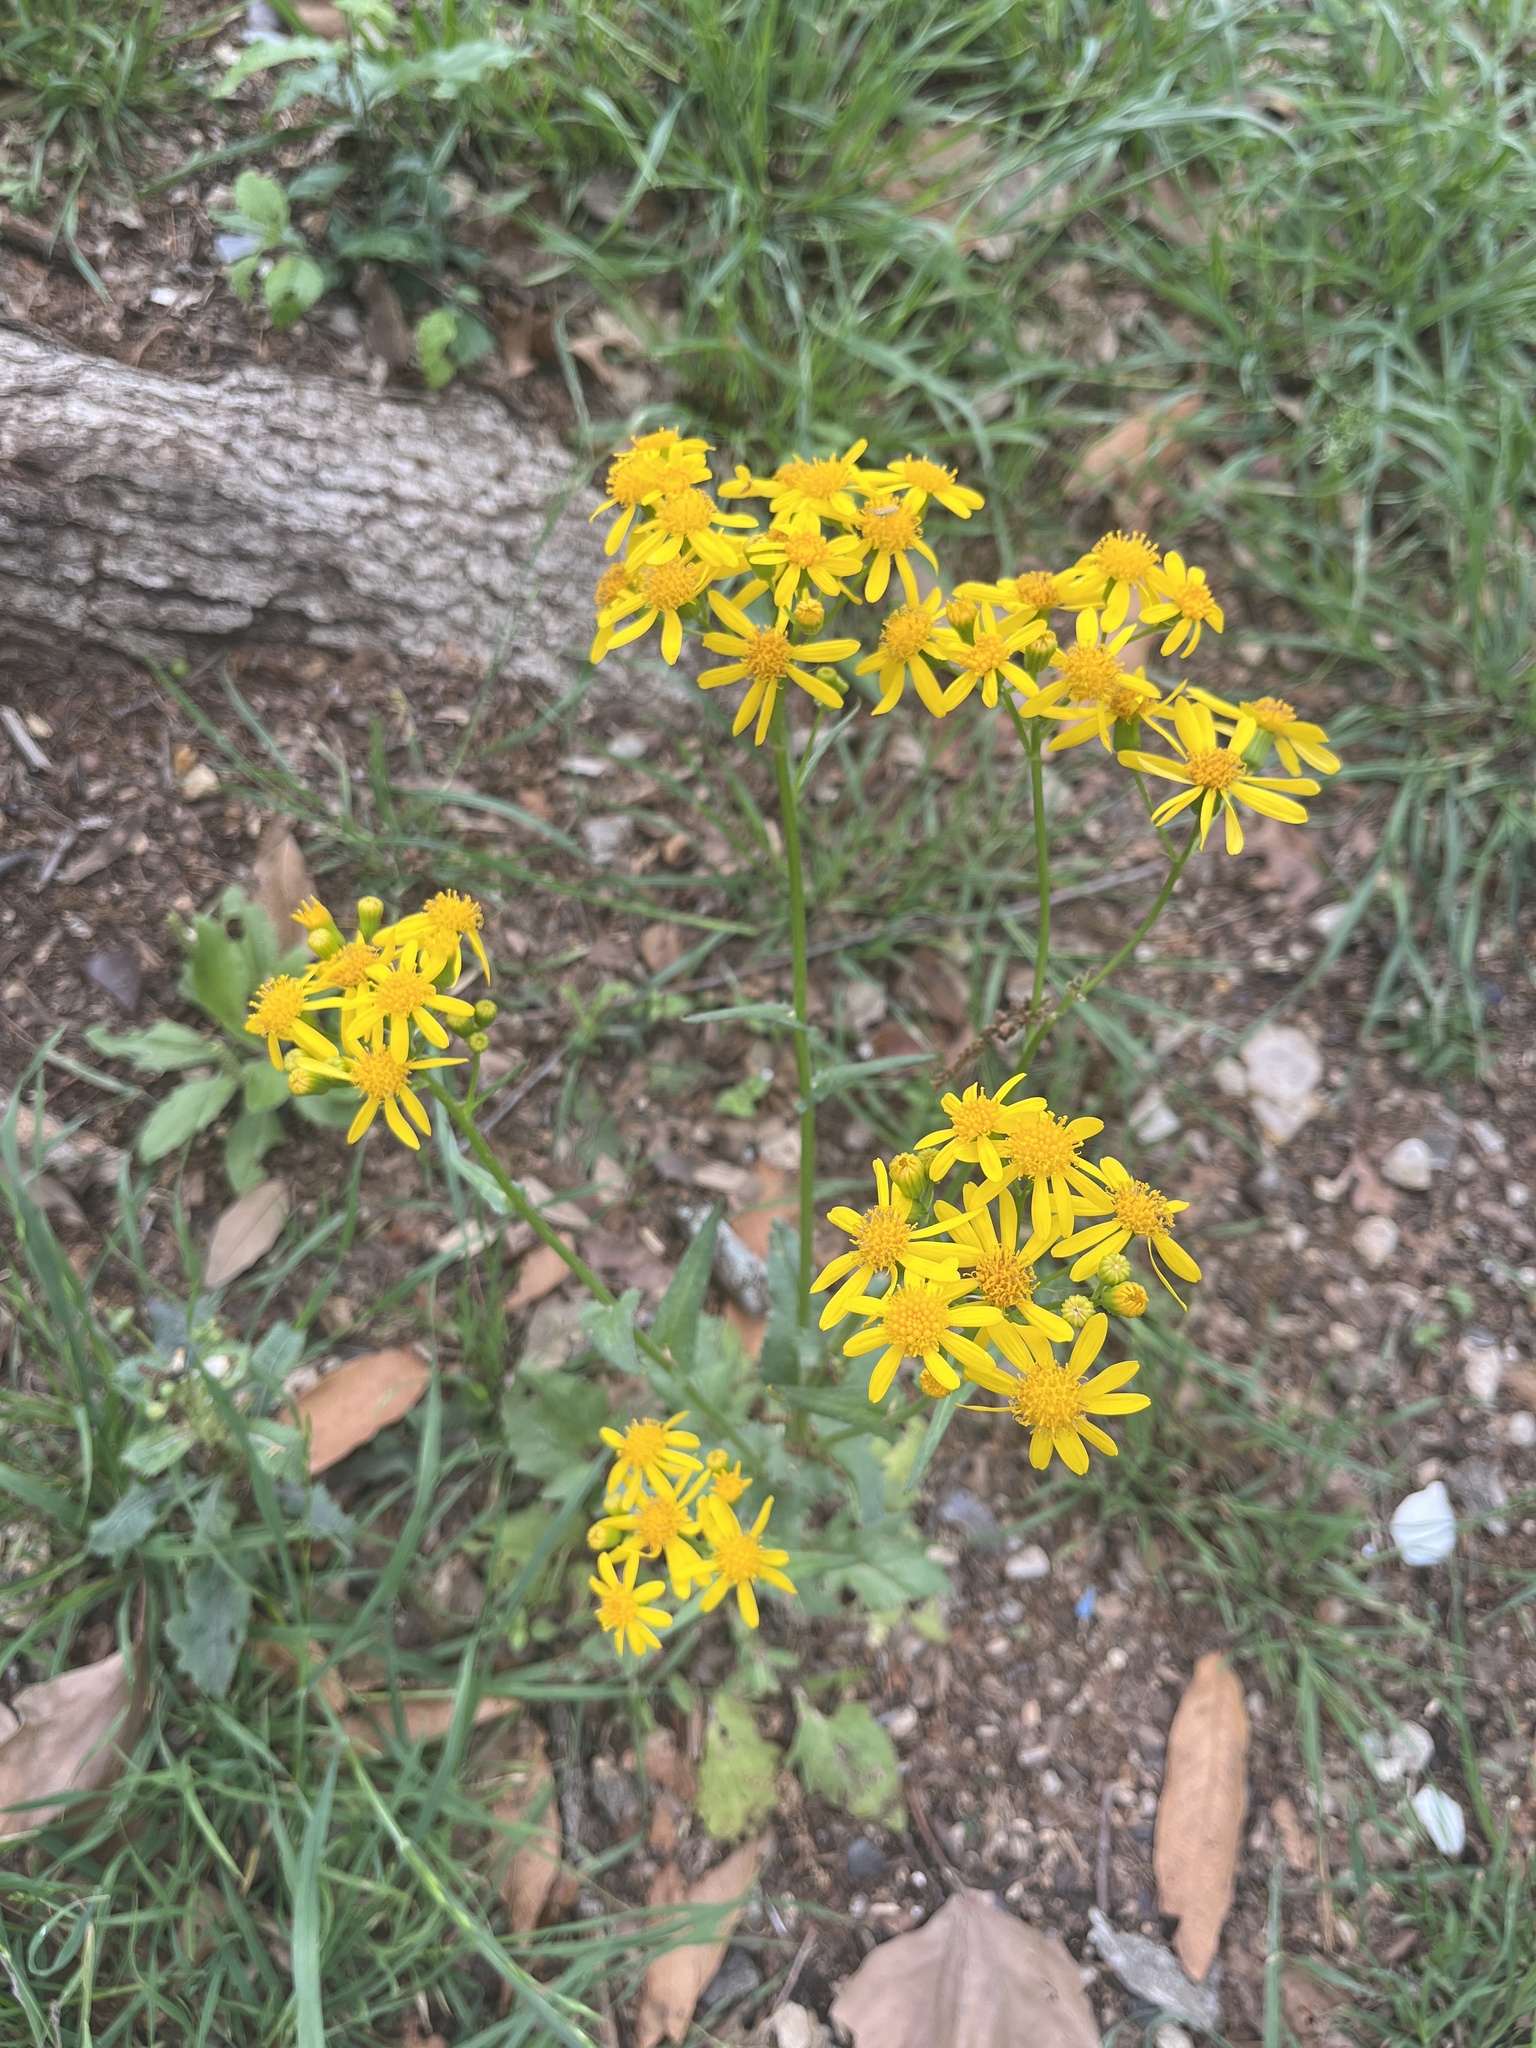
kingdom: Plantae
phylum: Tracheophyta
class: Magnoliopsida
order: Asterales
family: Asteraceae
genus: Senecio
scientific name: Senecio ampullaceus
